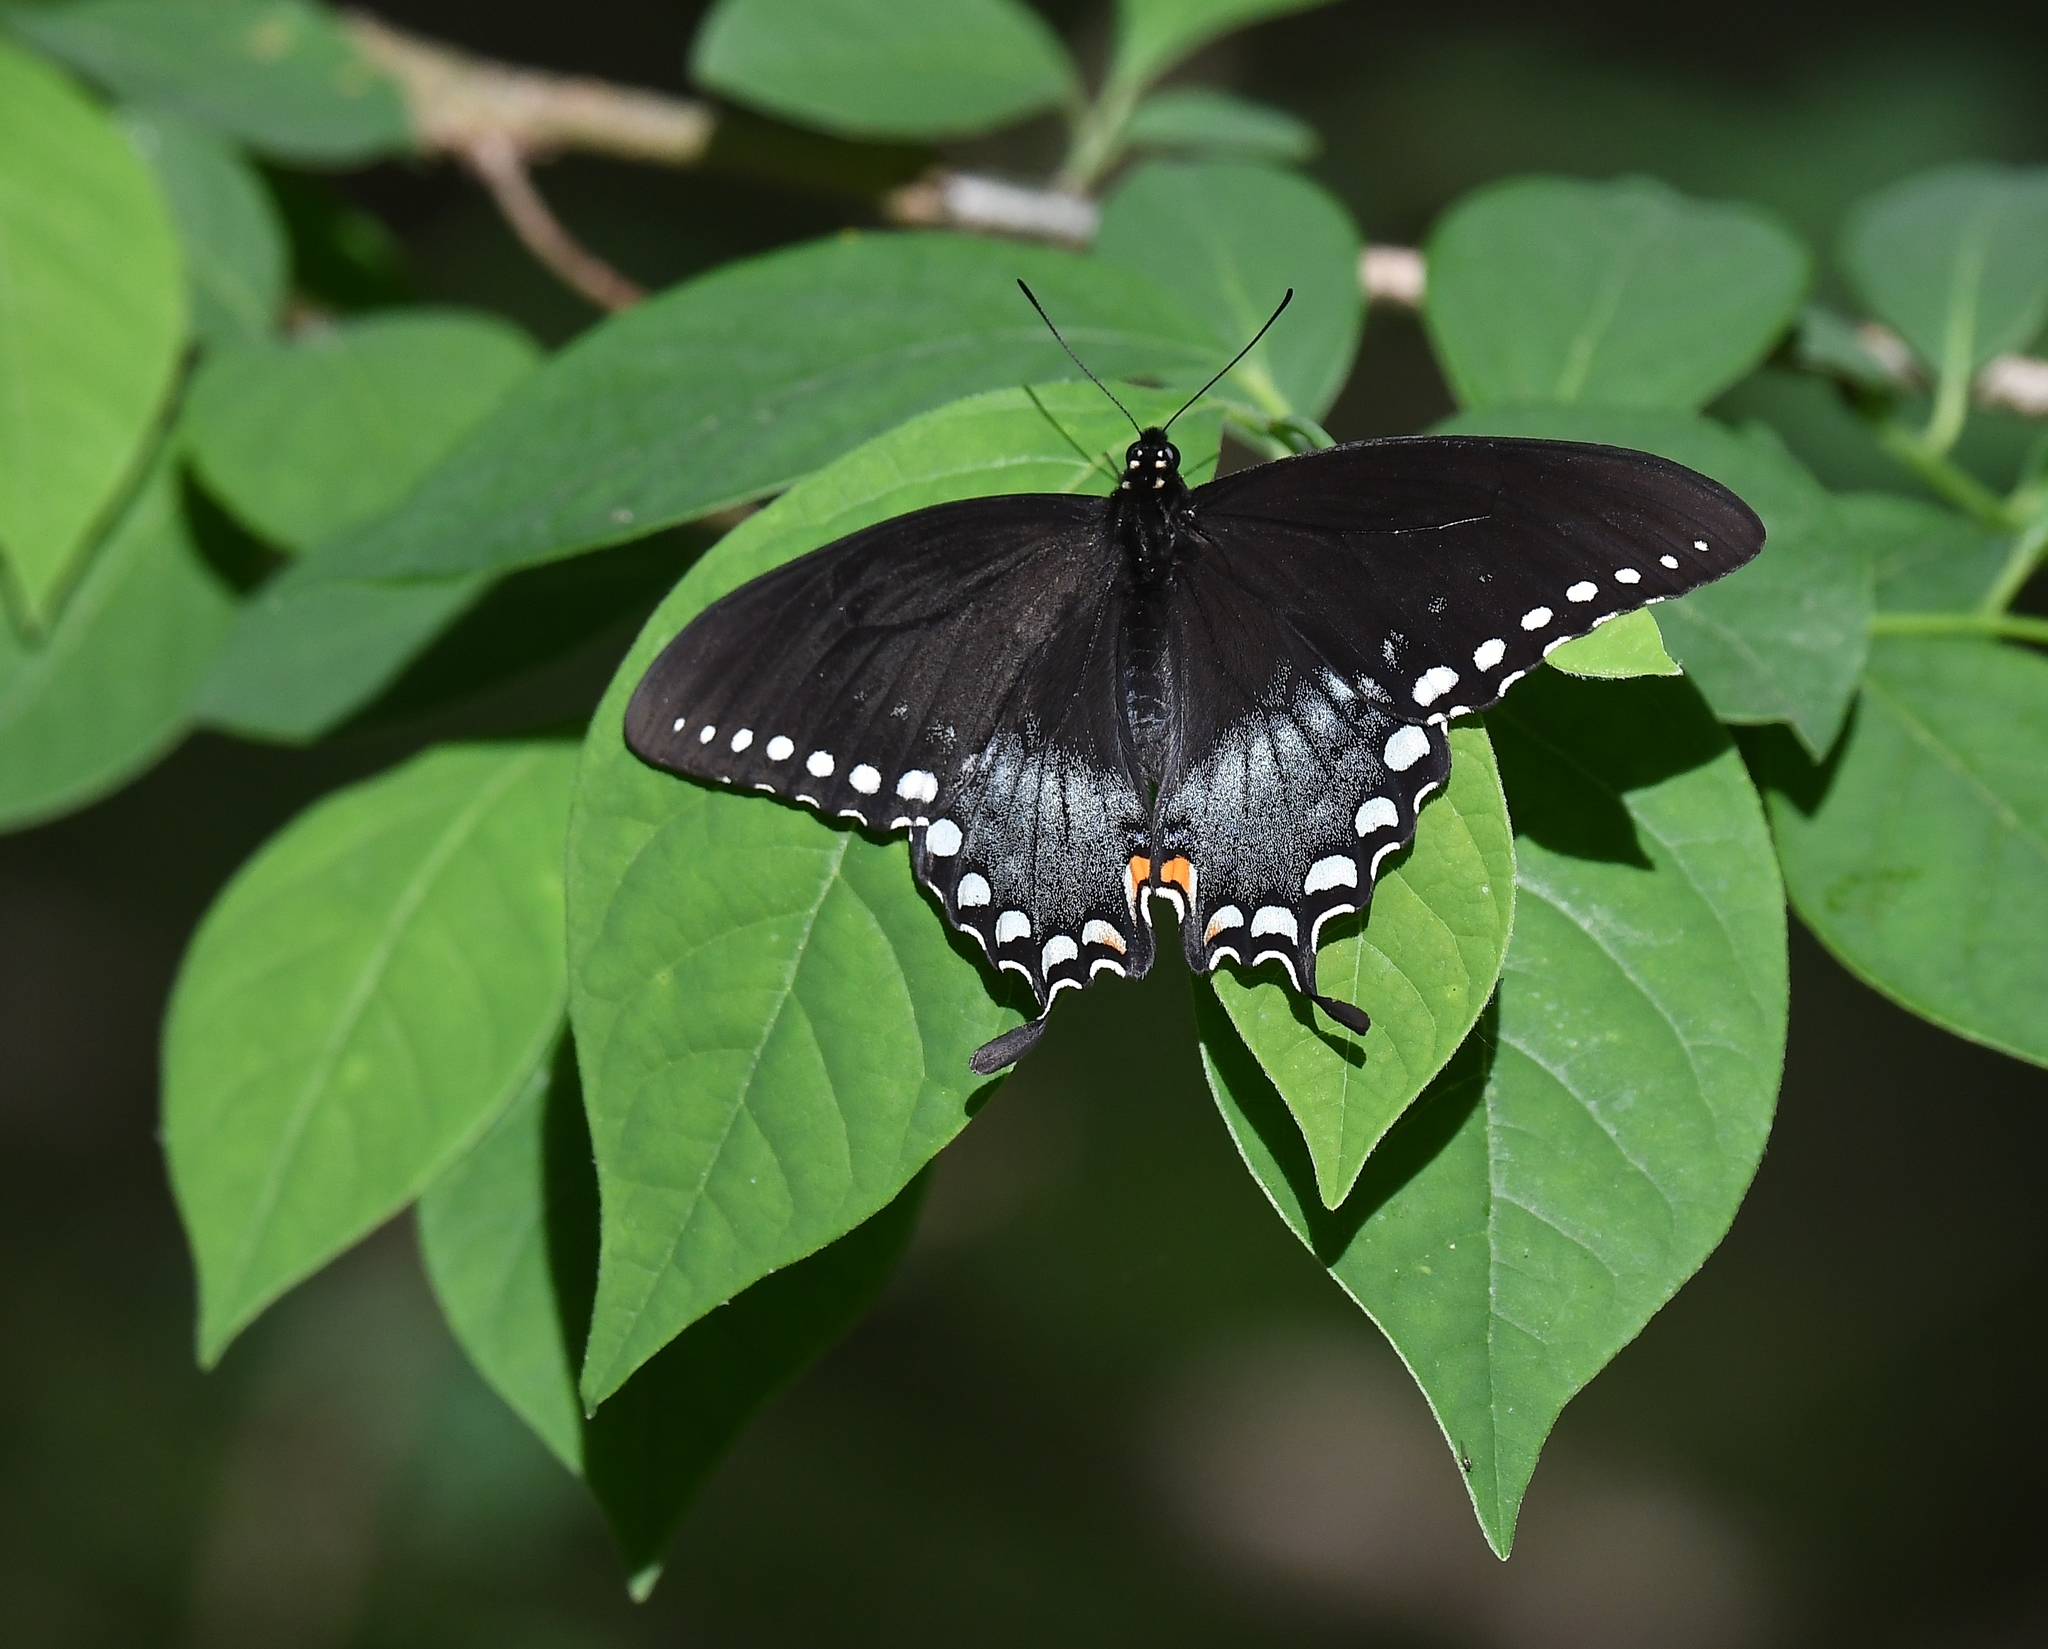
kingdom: Animalia
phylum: Arthropoda
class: Insecta
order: Lepidoptera
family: Papilionidae
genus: Papilio
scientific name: Papilio troilus
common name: Spicebush swallowtail
